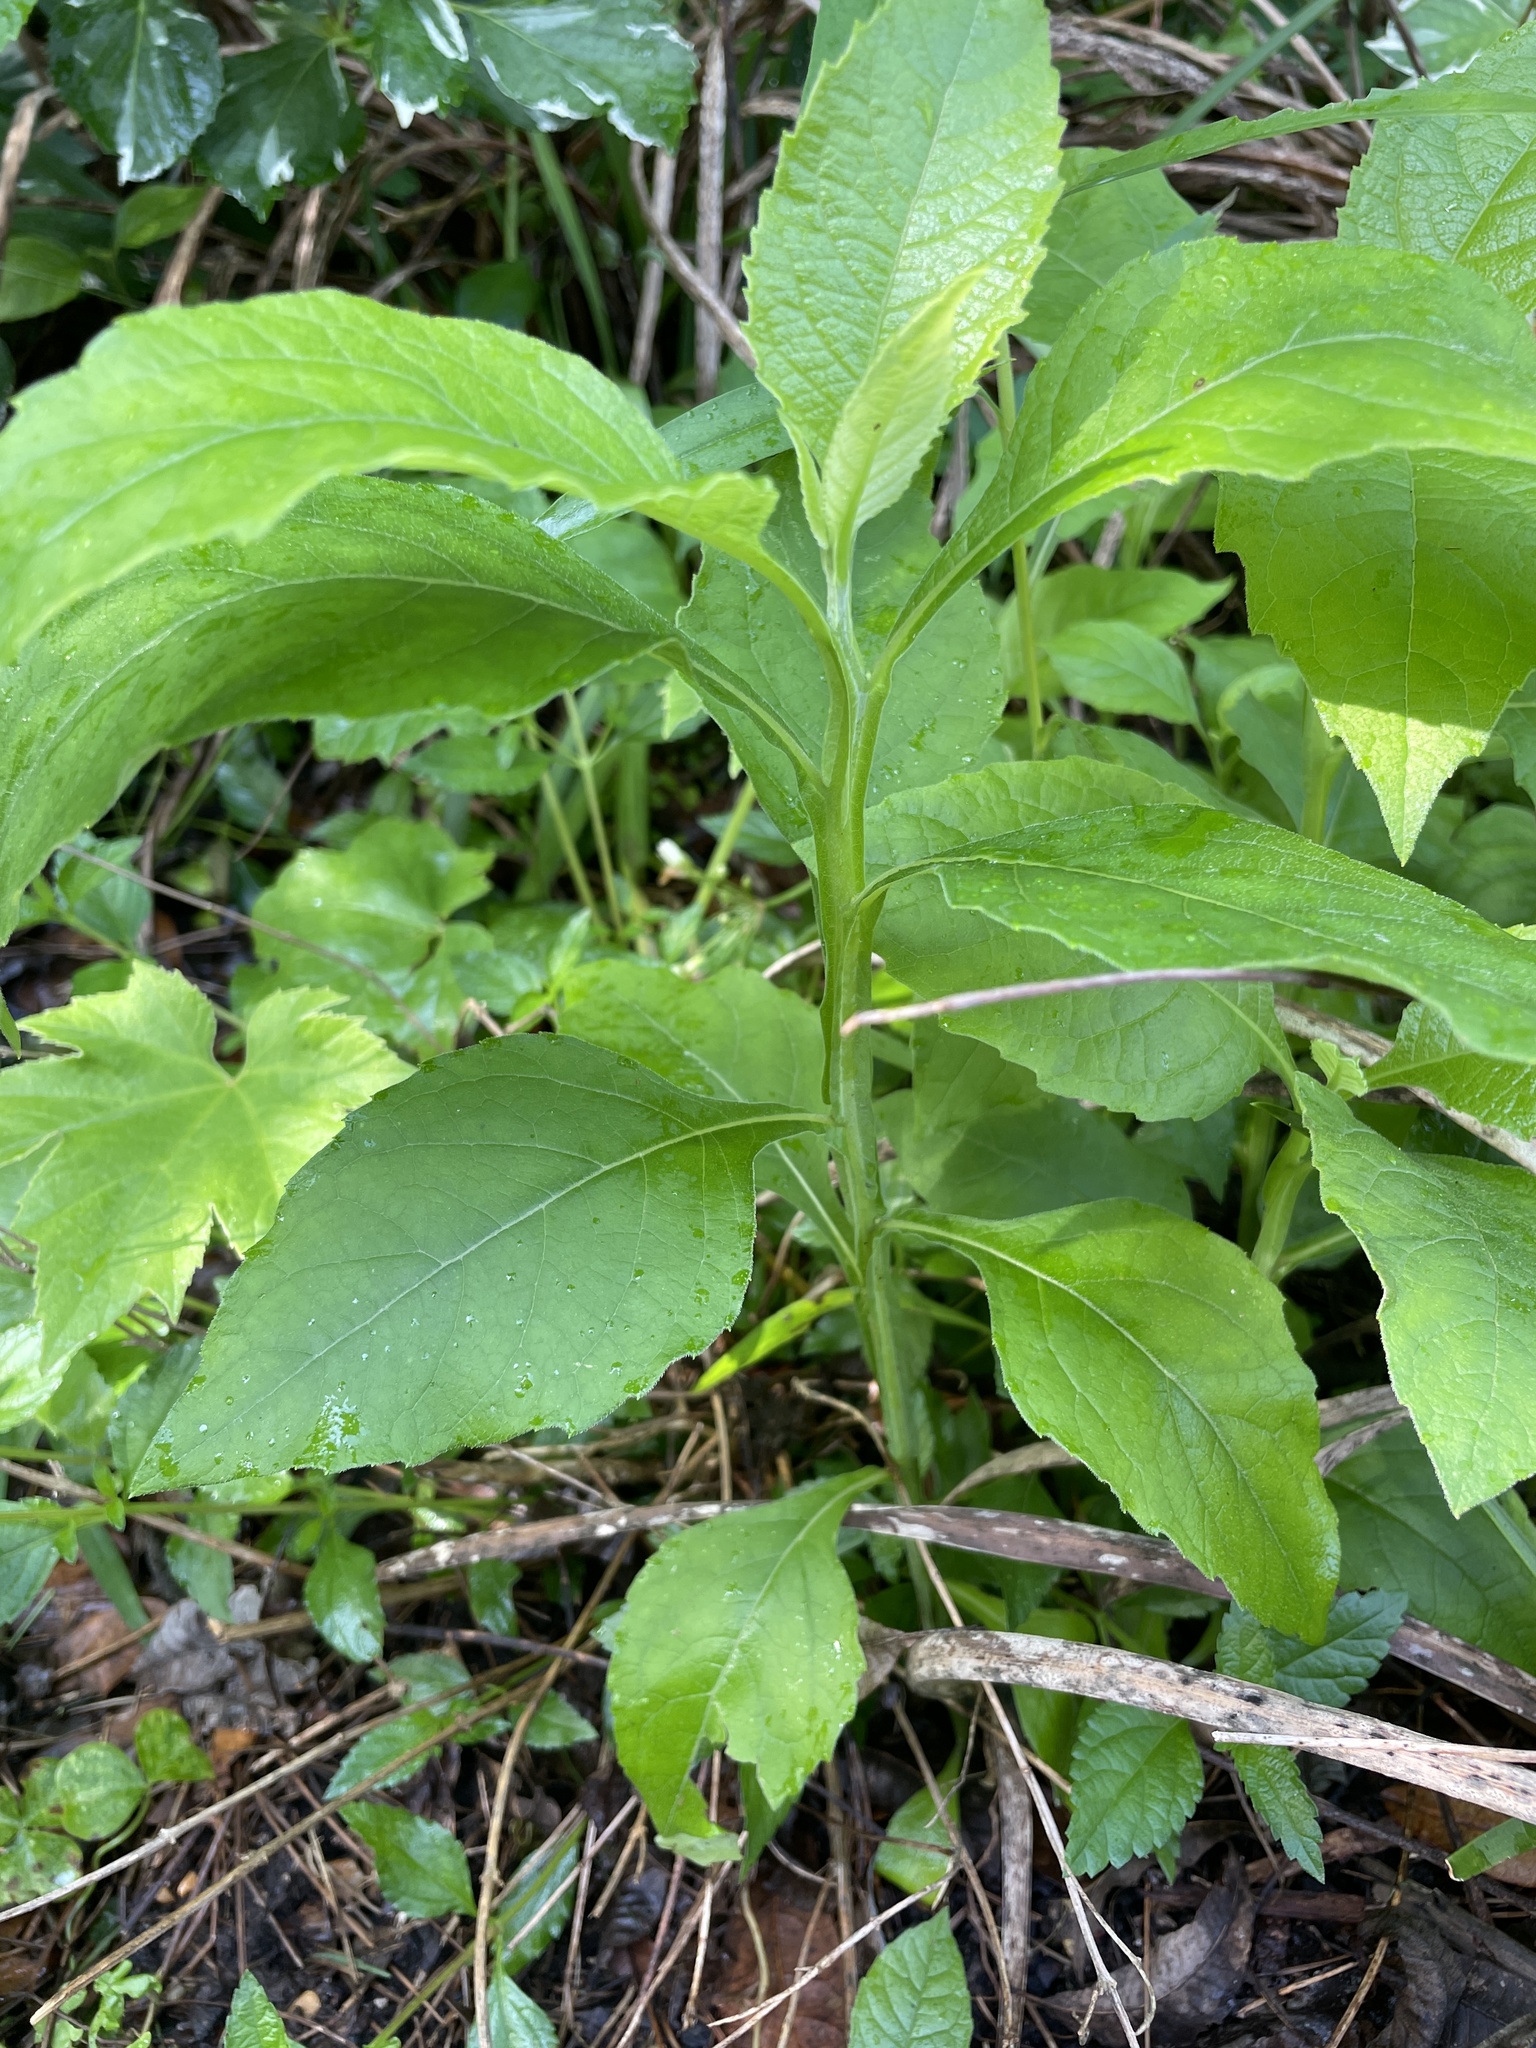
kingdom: Plantae
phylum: Tracheophyta
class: Magnoliopsida
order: Asterales
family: Asteraceae
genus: Verbesina
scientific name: Verbesina virginica
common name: Frostweed
